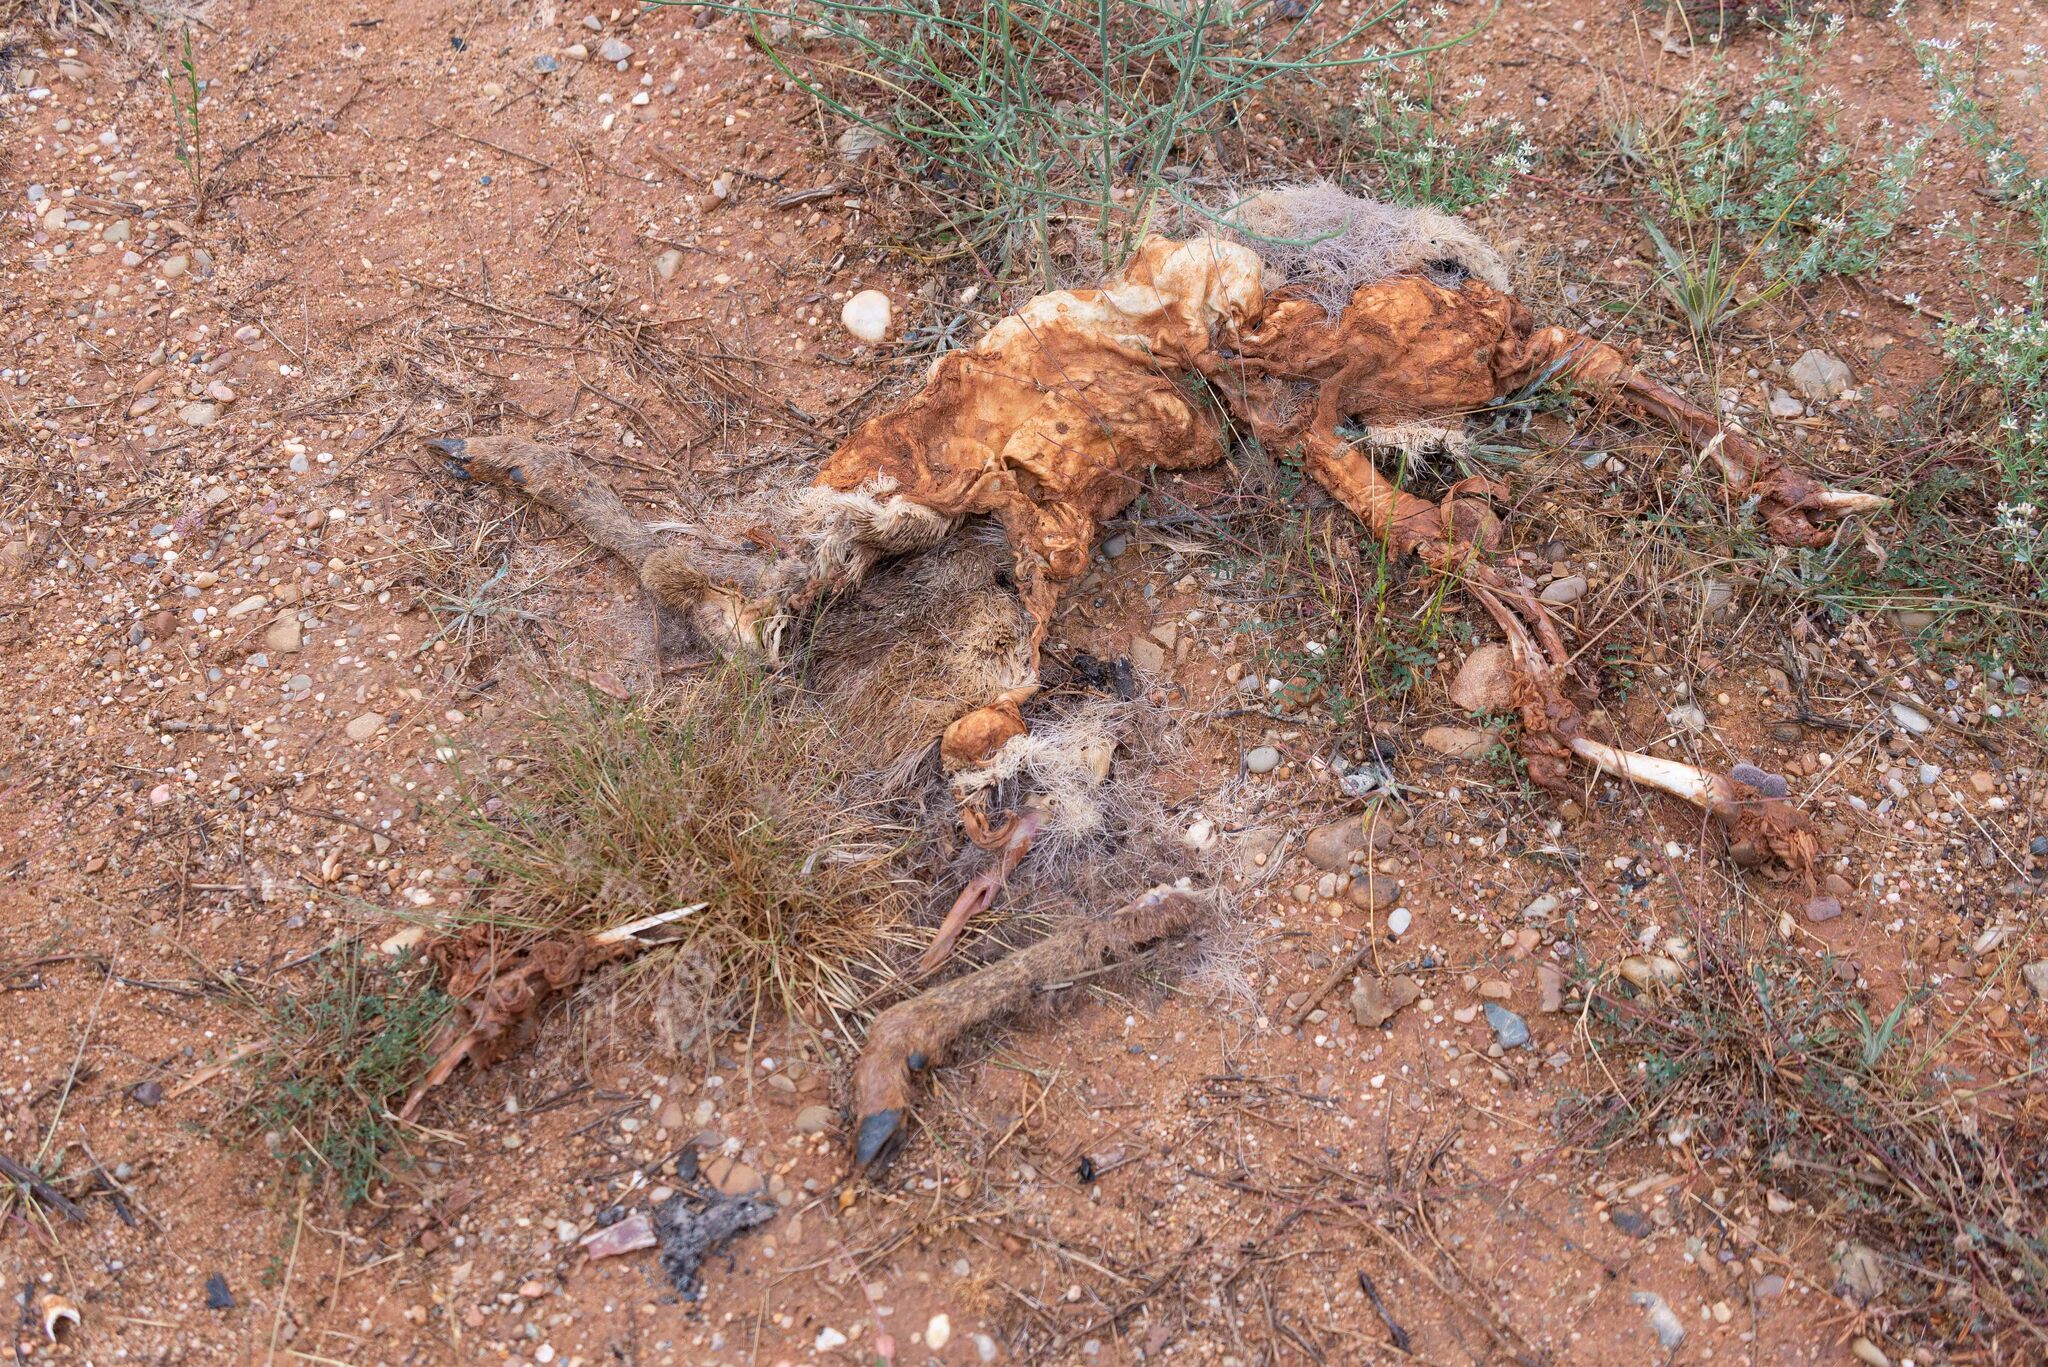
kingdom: Animalia
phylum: Chordata
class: Mammalia
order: Artiodactyla
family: Cervidae
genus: Capreolus
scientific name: Capreolus capreolus
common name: Western roe deer
